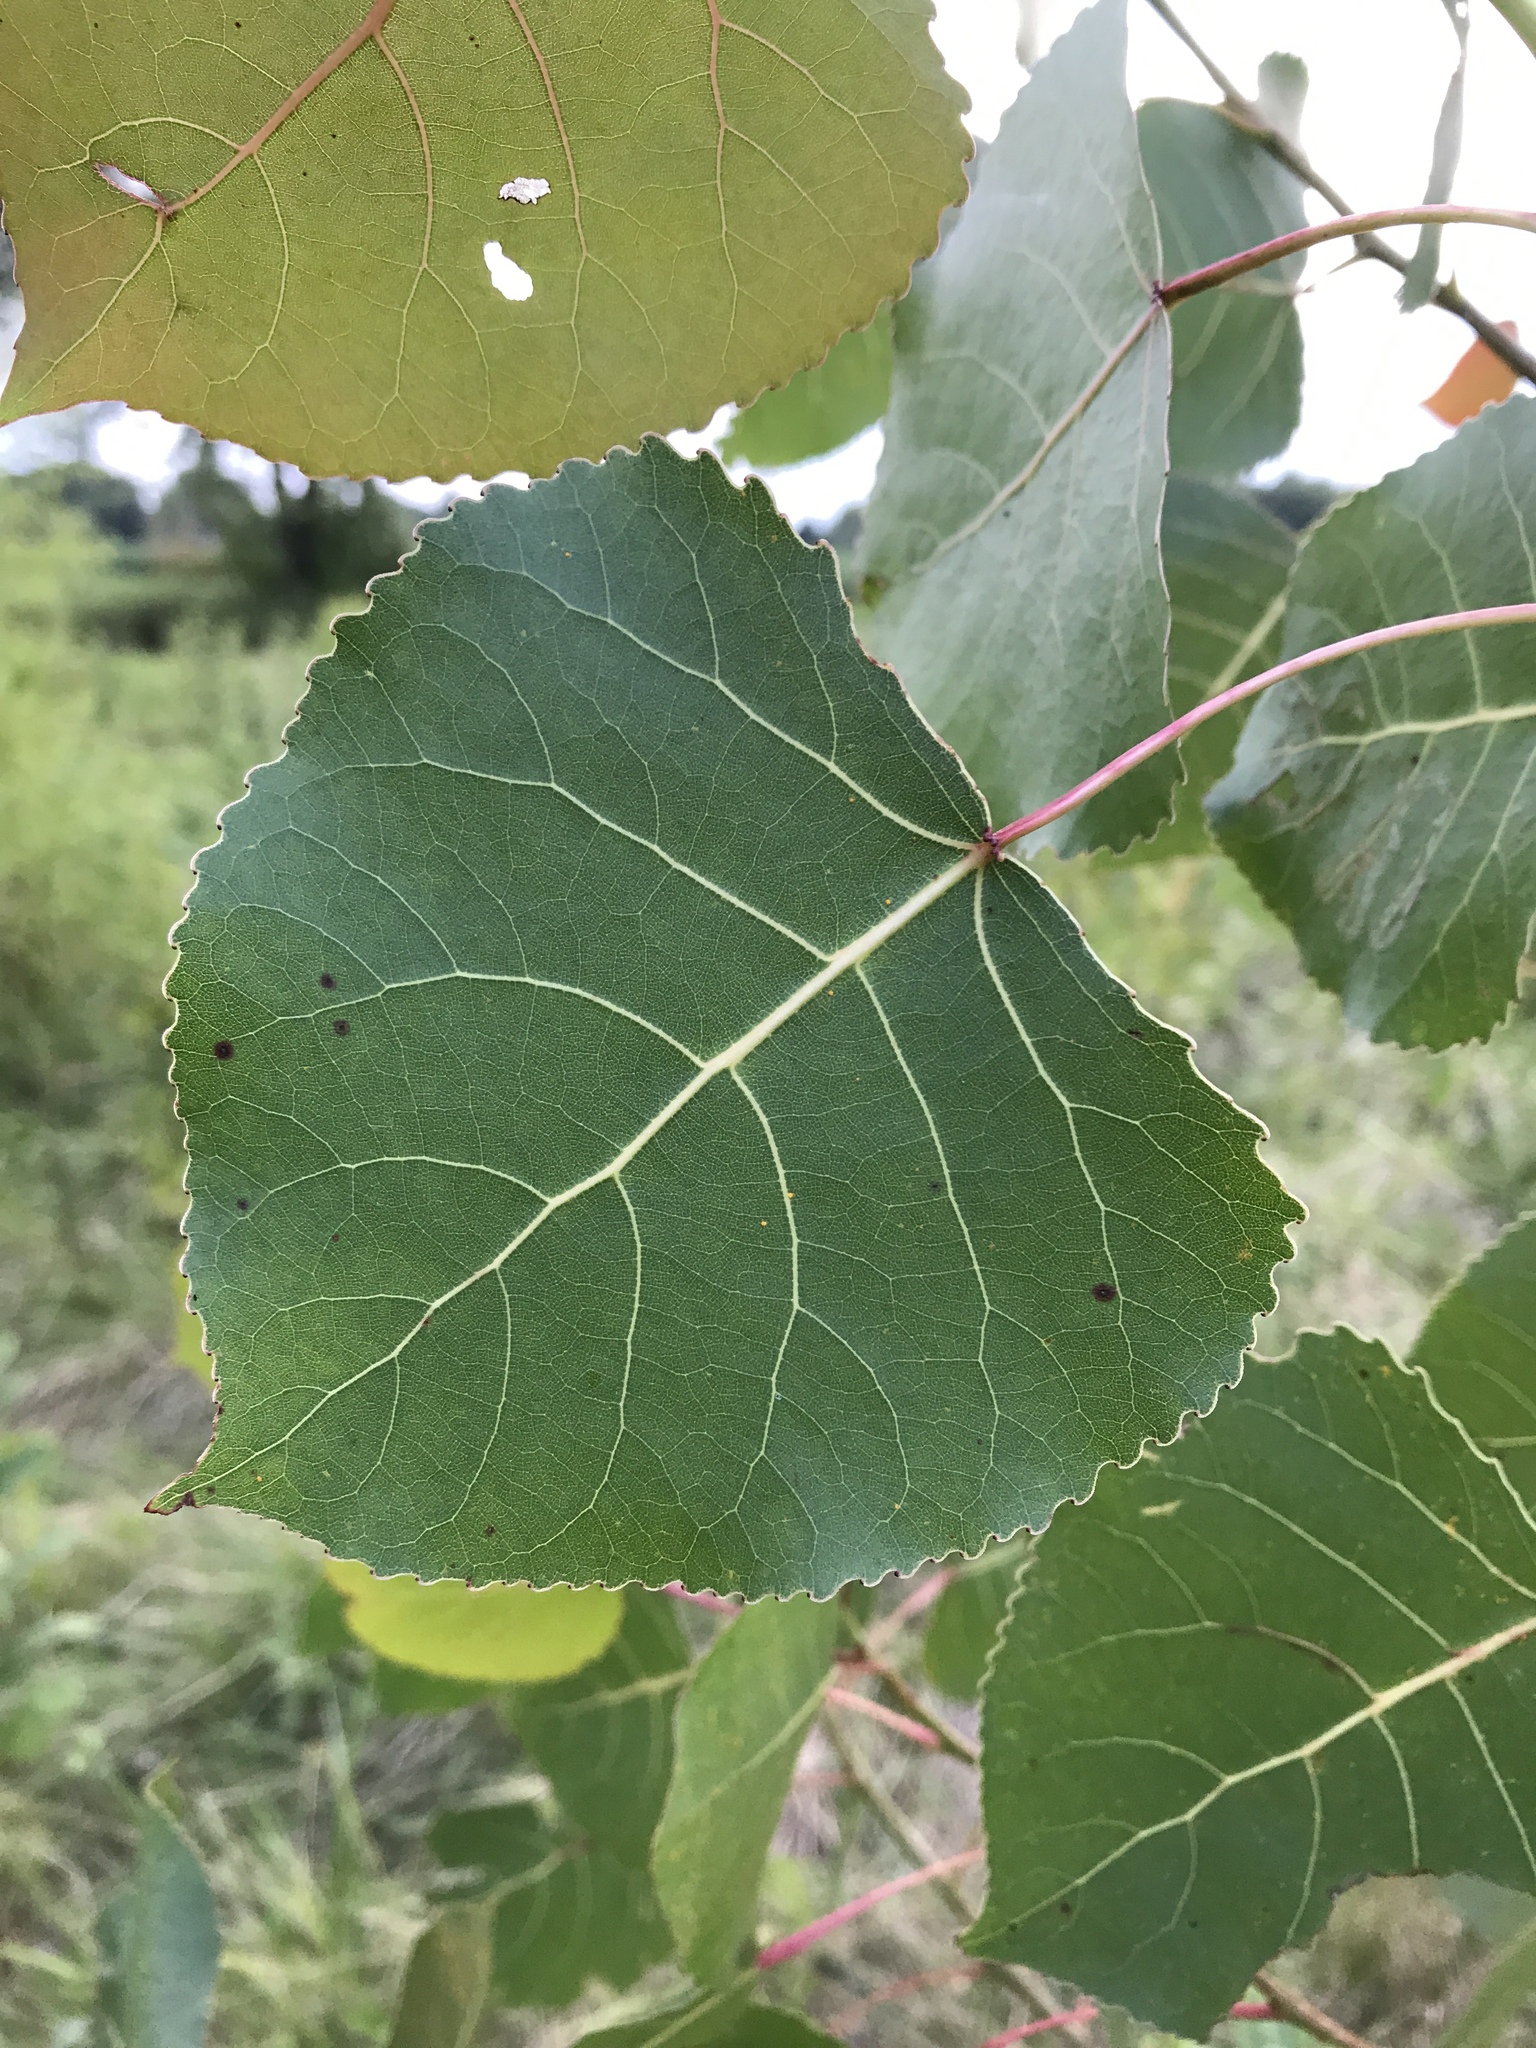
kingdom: Plantae
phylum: Tracheophyta
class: Magnoliopsida
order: Malpighiales
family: Salicaceae
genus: Populus
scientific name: Populus deltoides
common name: Eastern cottonwood
